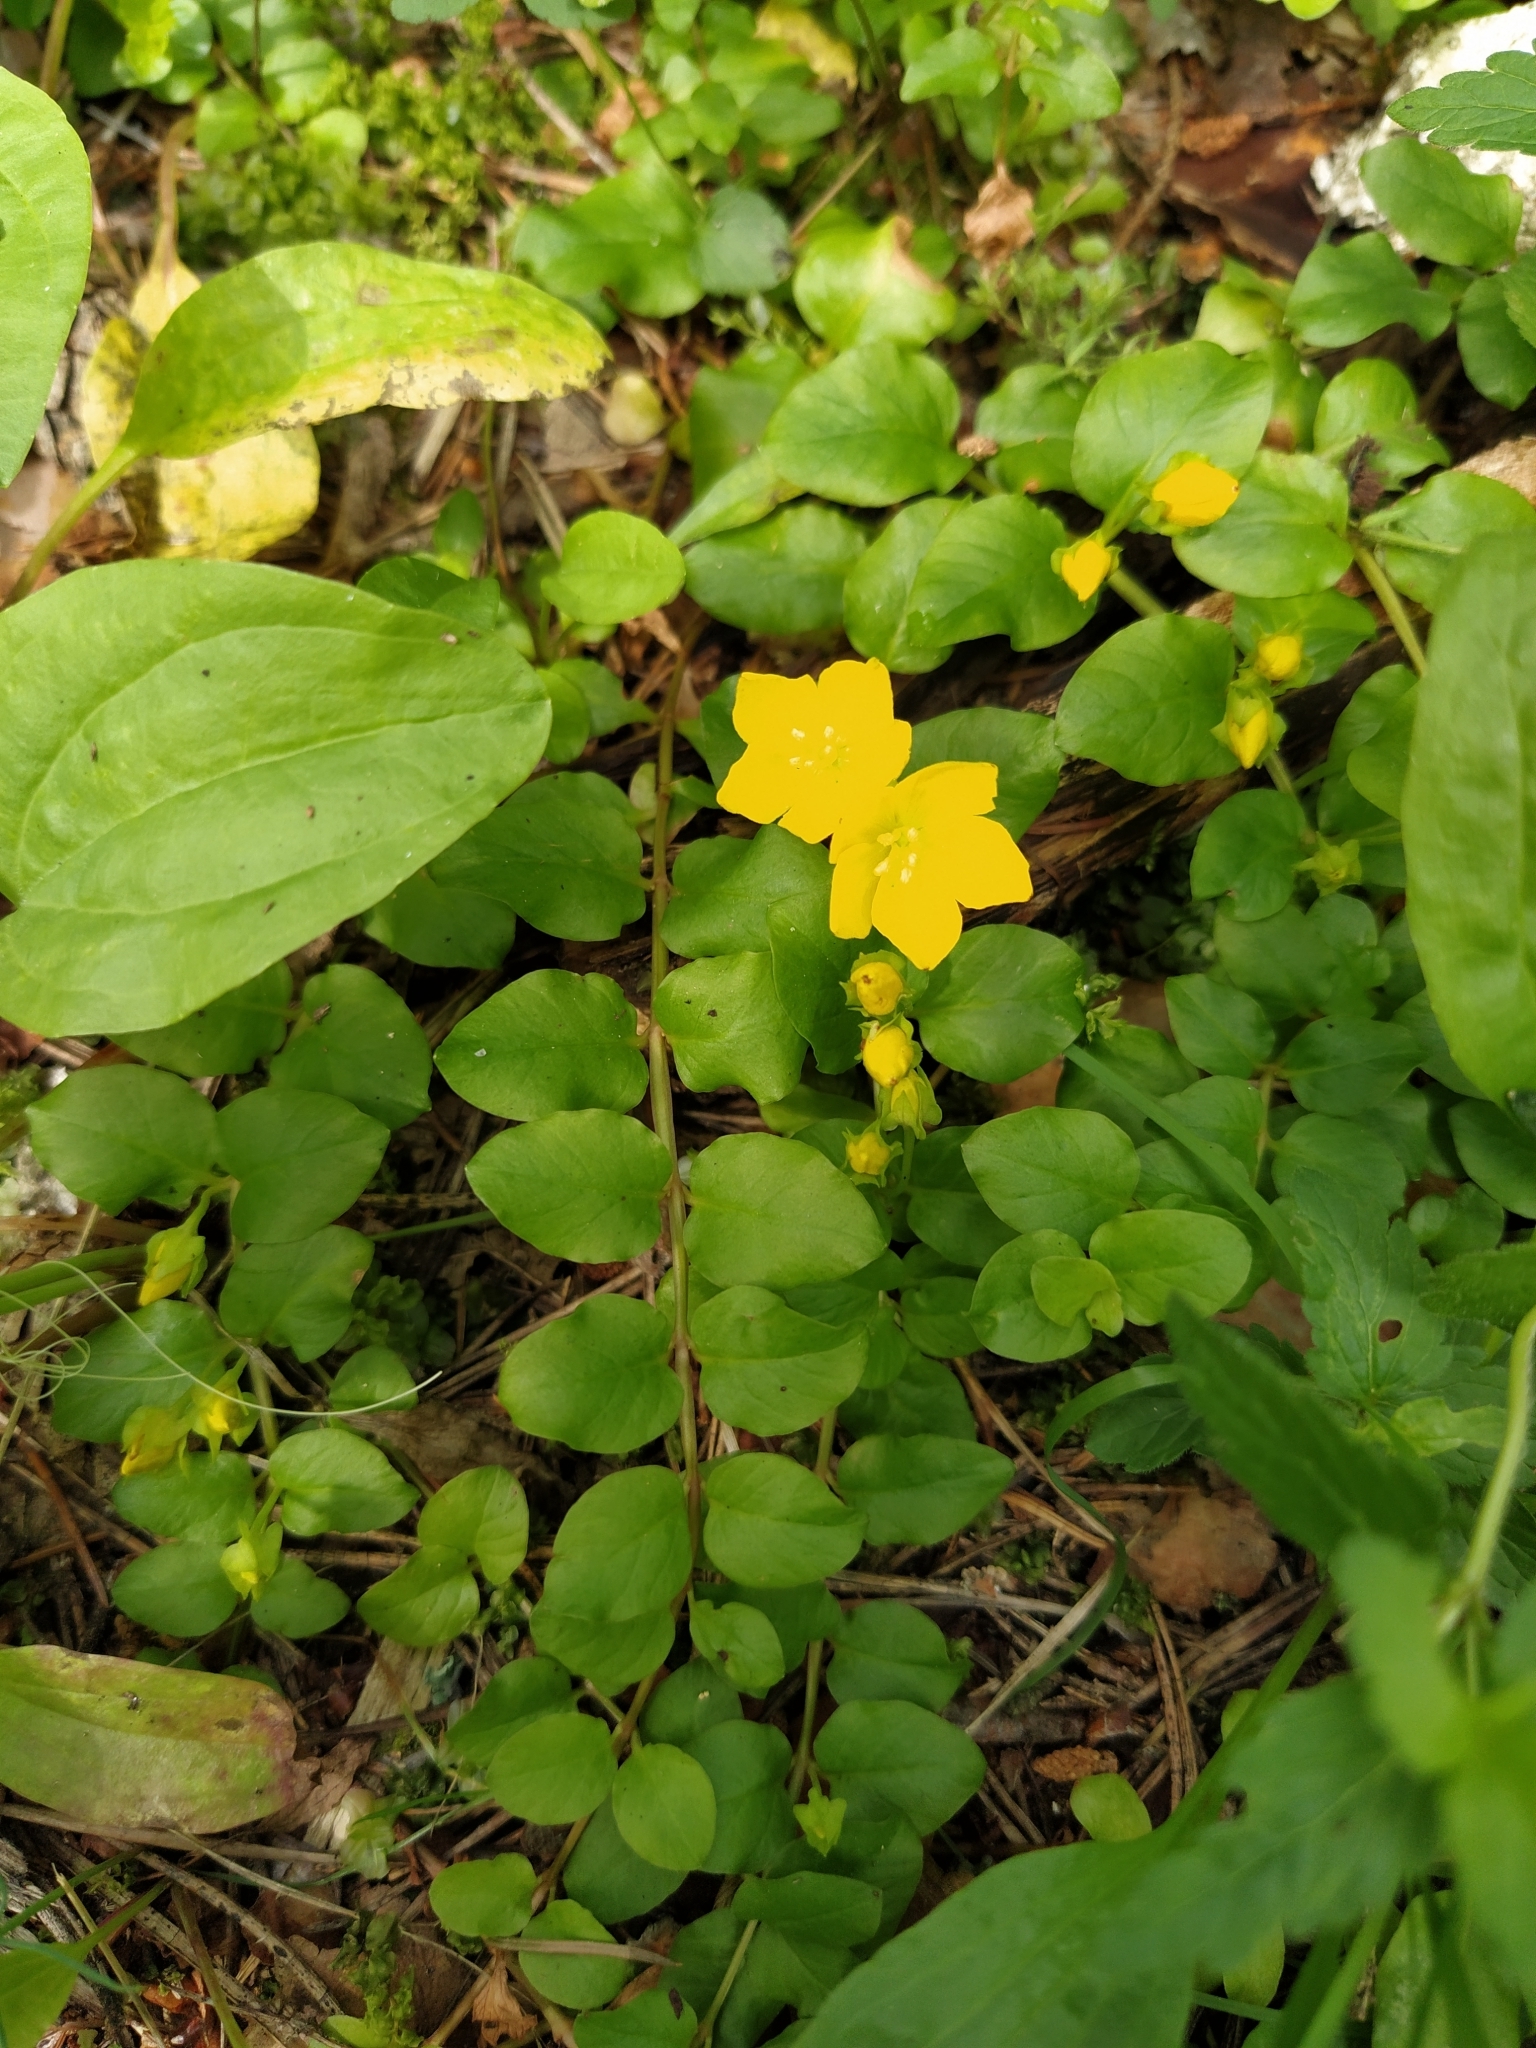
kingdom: Plantae
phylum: Tracheophyta
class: Magnoliopsida
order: Ericales
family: Primulaceae
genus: Lysimachia
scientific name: Lysimachia nummularia
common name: Moneywort
